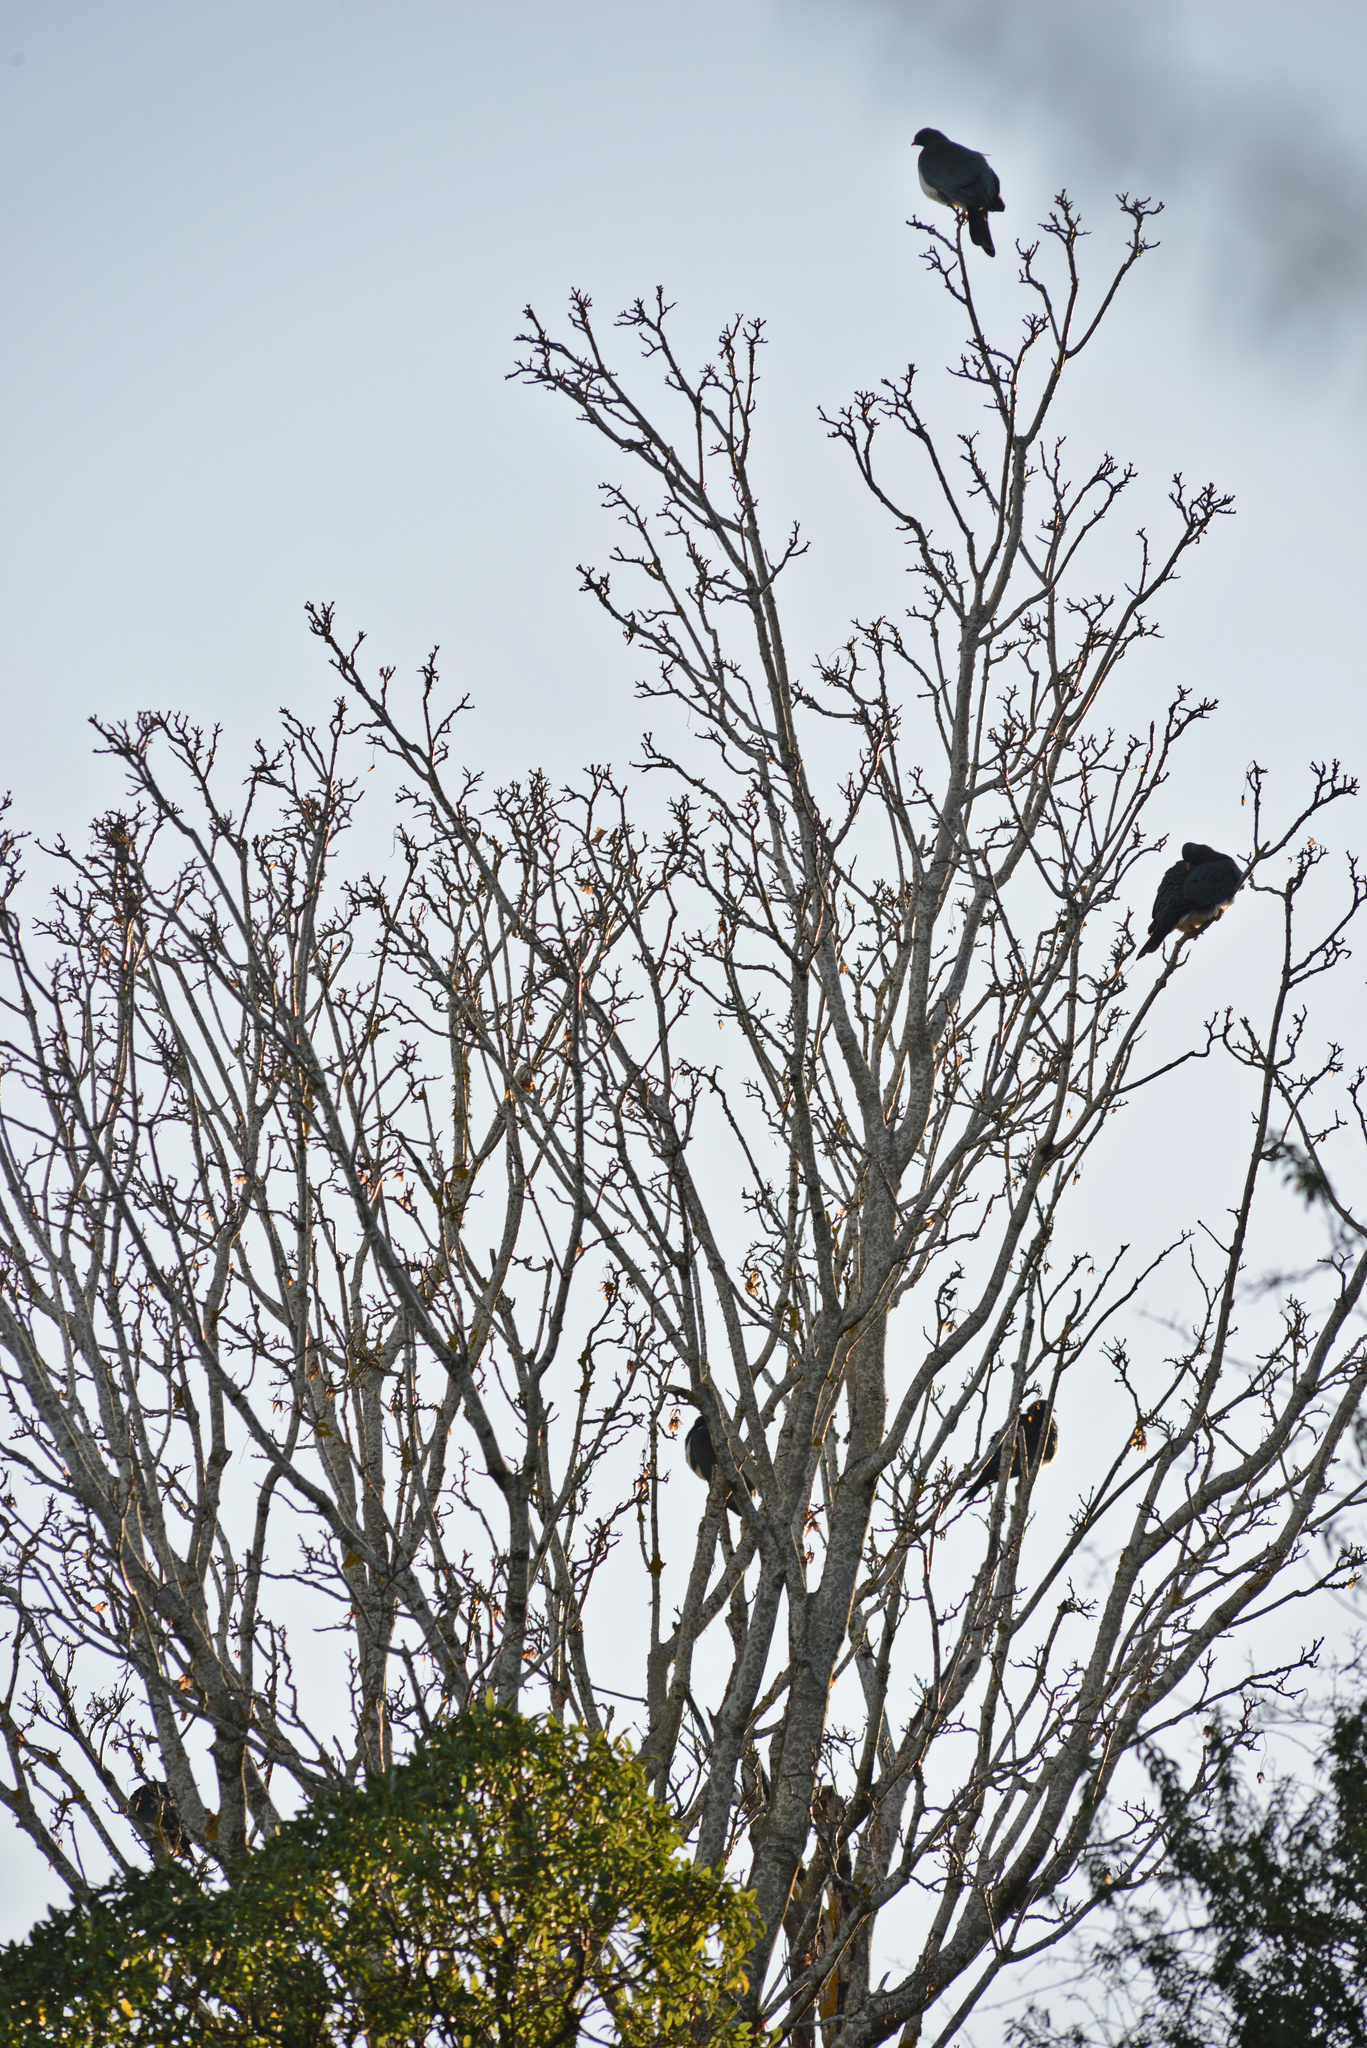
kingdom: Animalia
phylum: Chordata
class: Aves
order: Columbiformes
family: Columbidae
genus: Hemiphaga
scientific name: Hemiphaga novaeseelandiae
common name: New zealand pigeon
